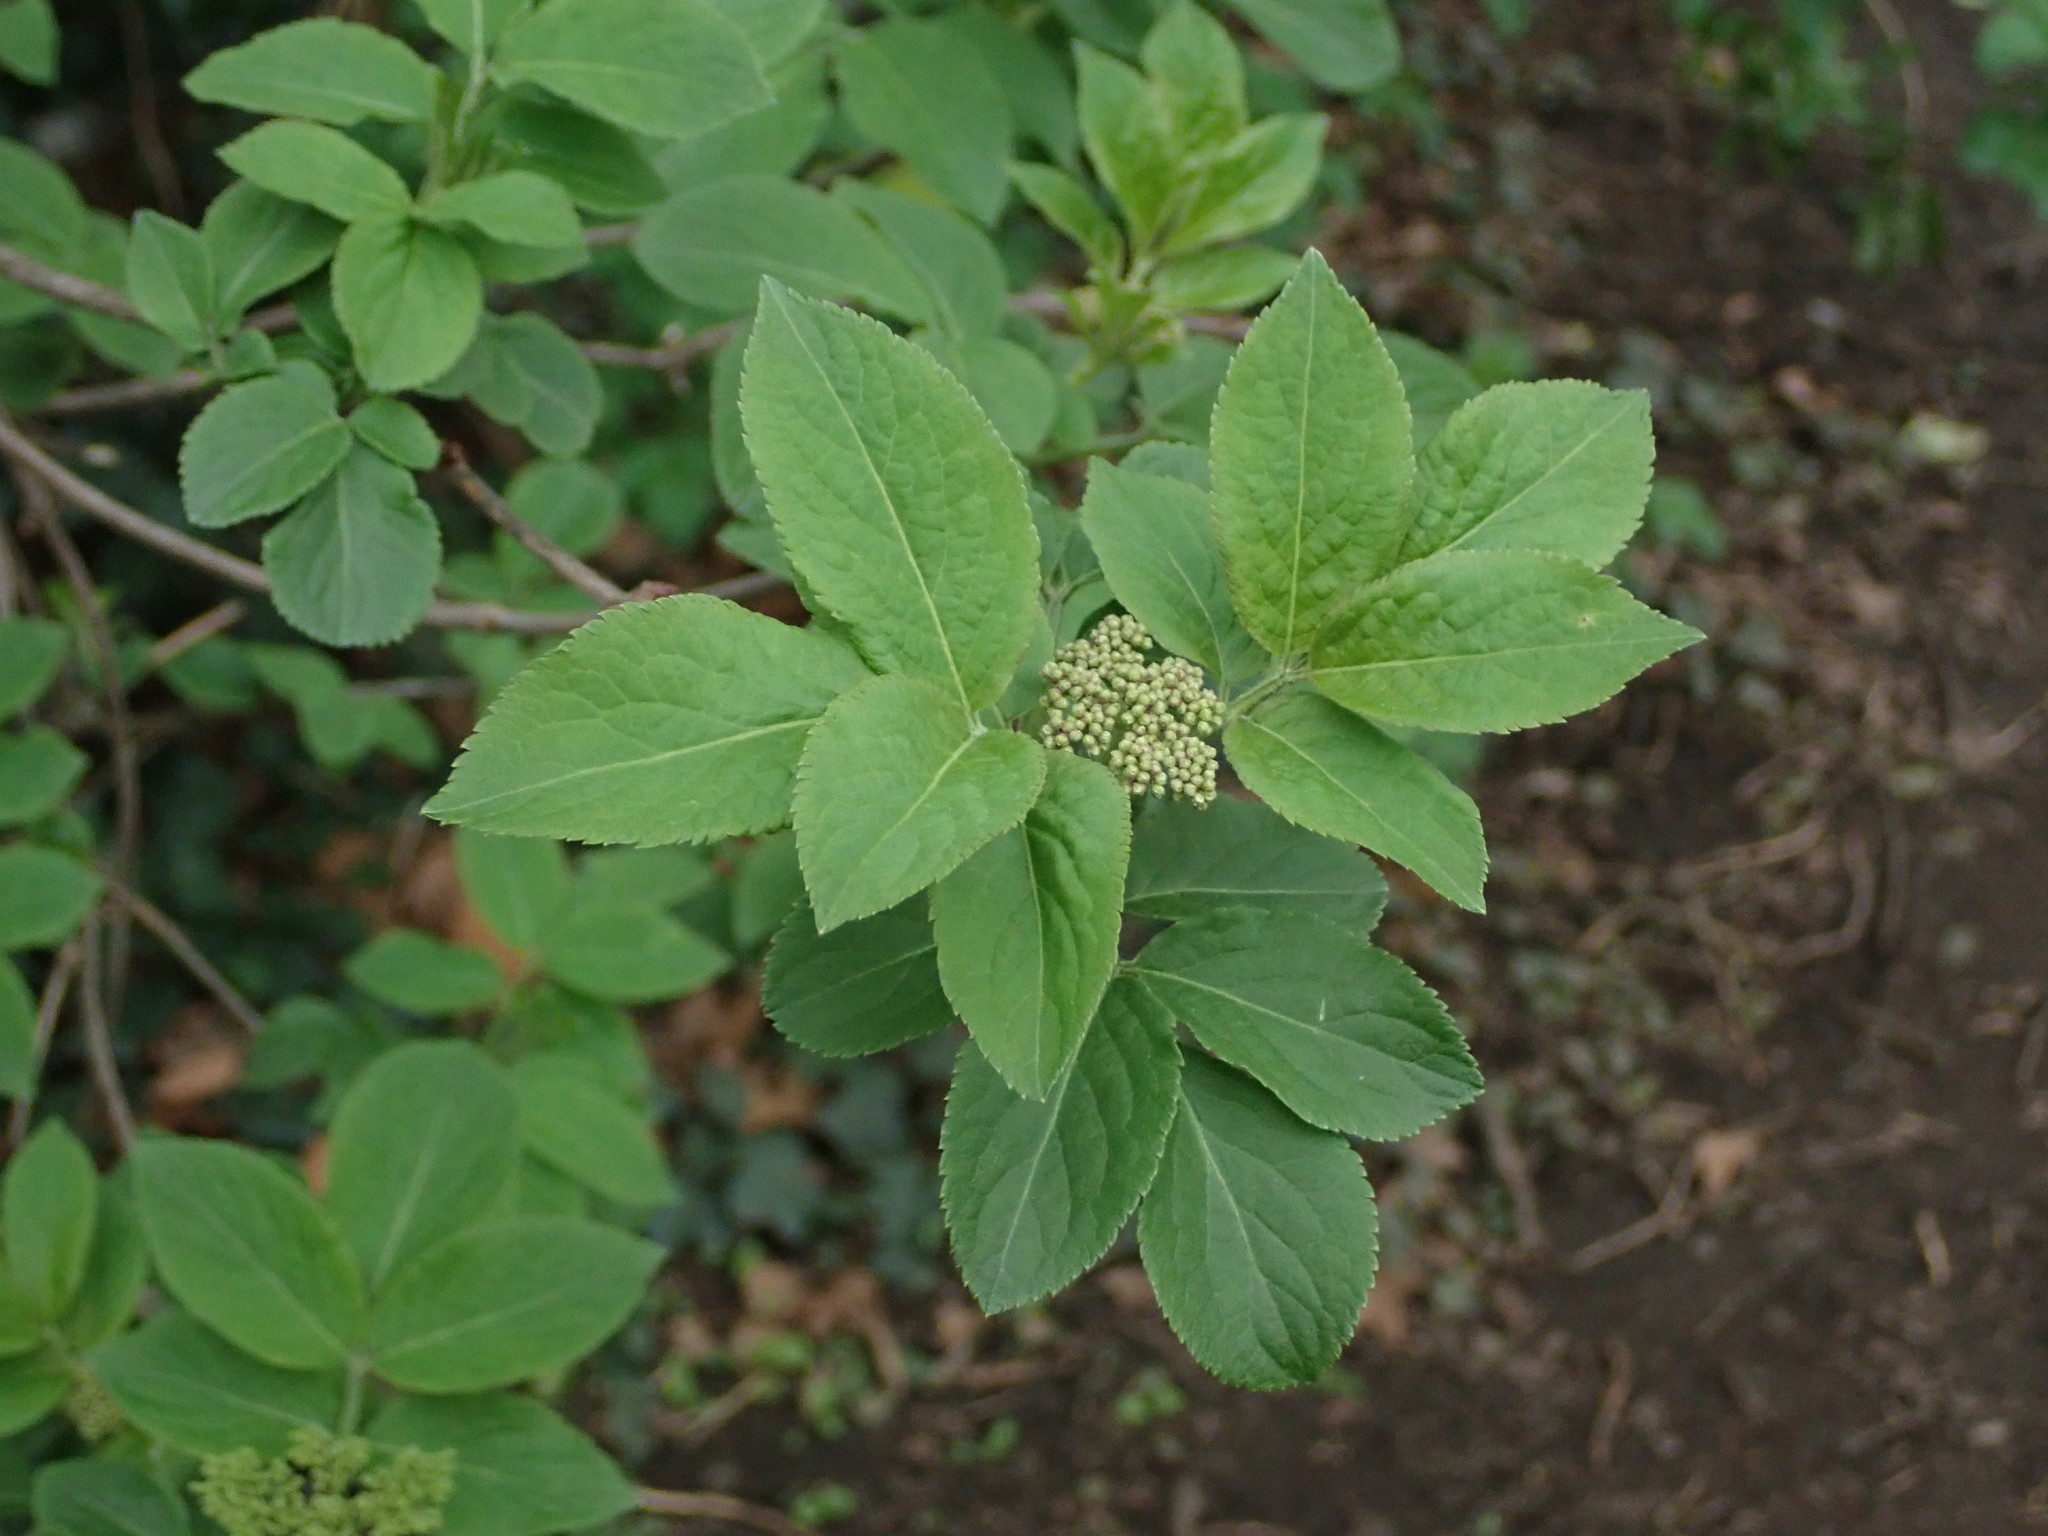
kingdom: Plantae
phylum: Tracheophyta
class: Magnoliopsida
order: Dipsacales
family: Viburnaceae
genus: Sambucus
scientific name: Sambucus nigra
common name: Elder
